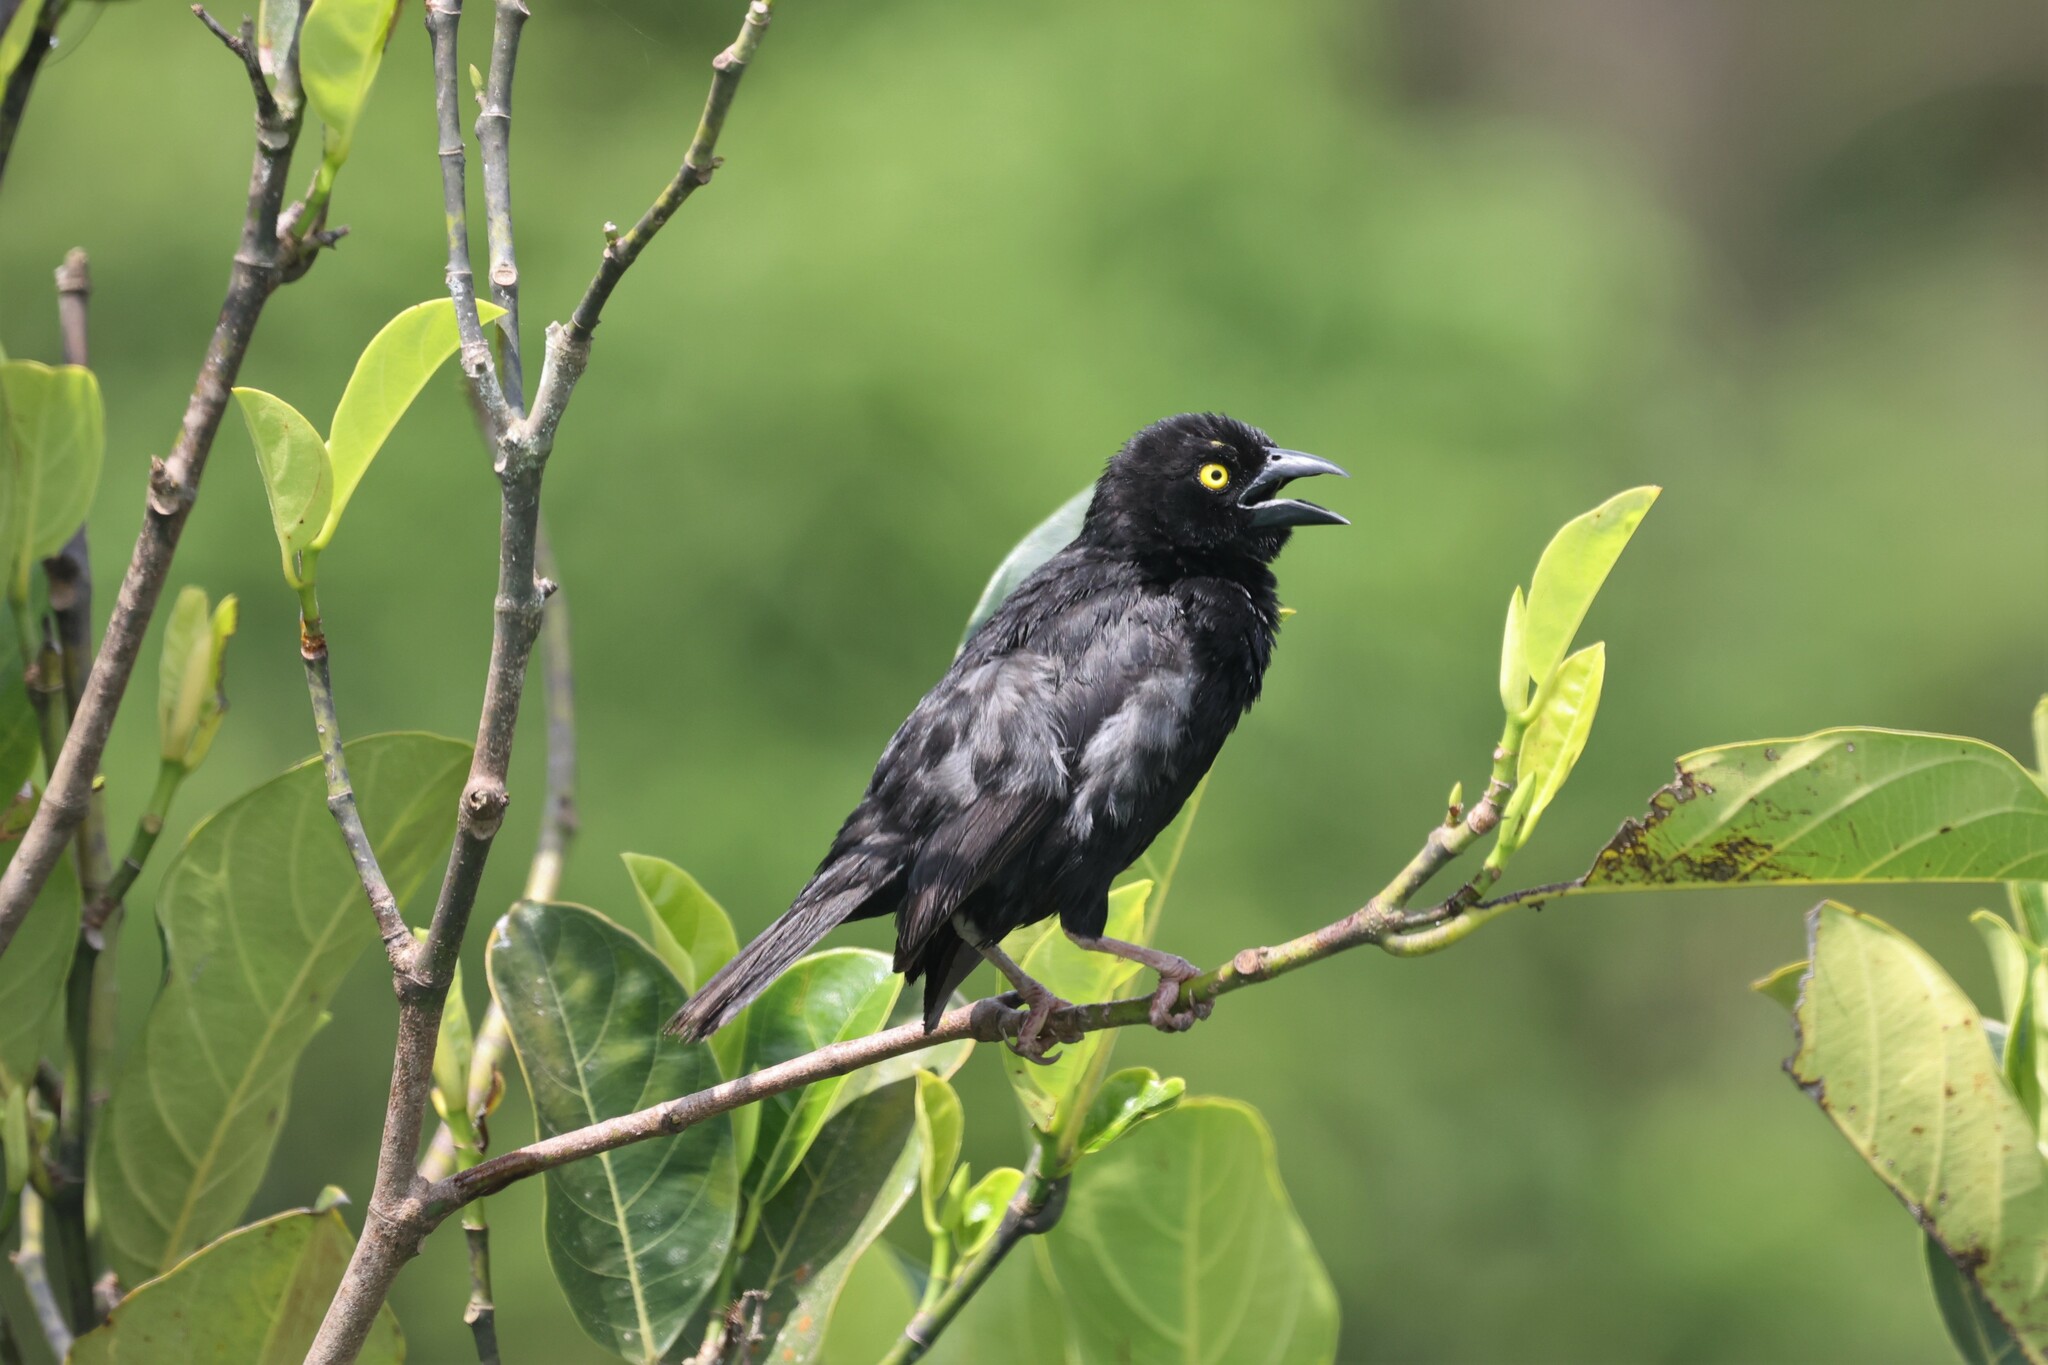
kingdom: Animalia
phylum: Chordata
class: Aves
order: Passeriformes
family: Ploceidae
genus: Ploceus
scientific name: Ploceus nigerrimus
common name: Vieillot's black weaver
